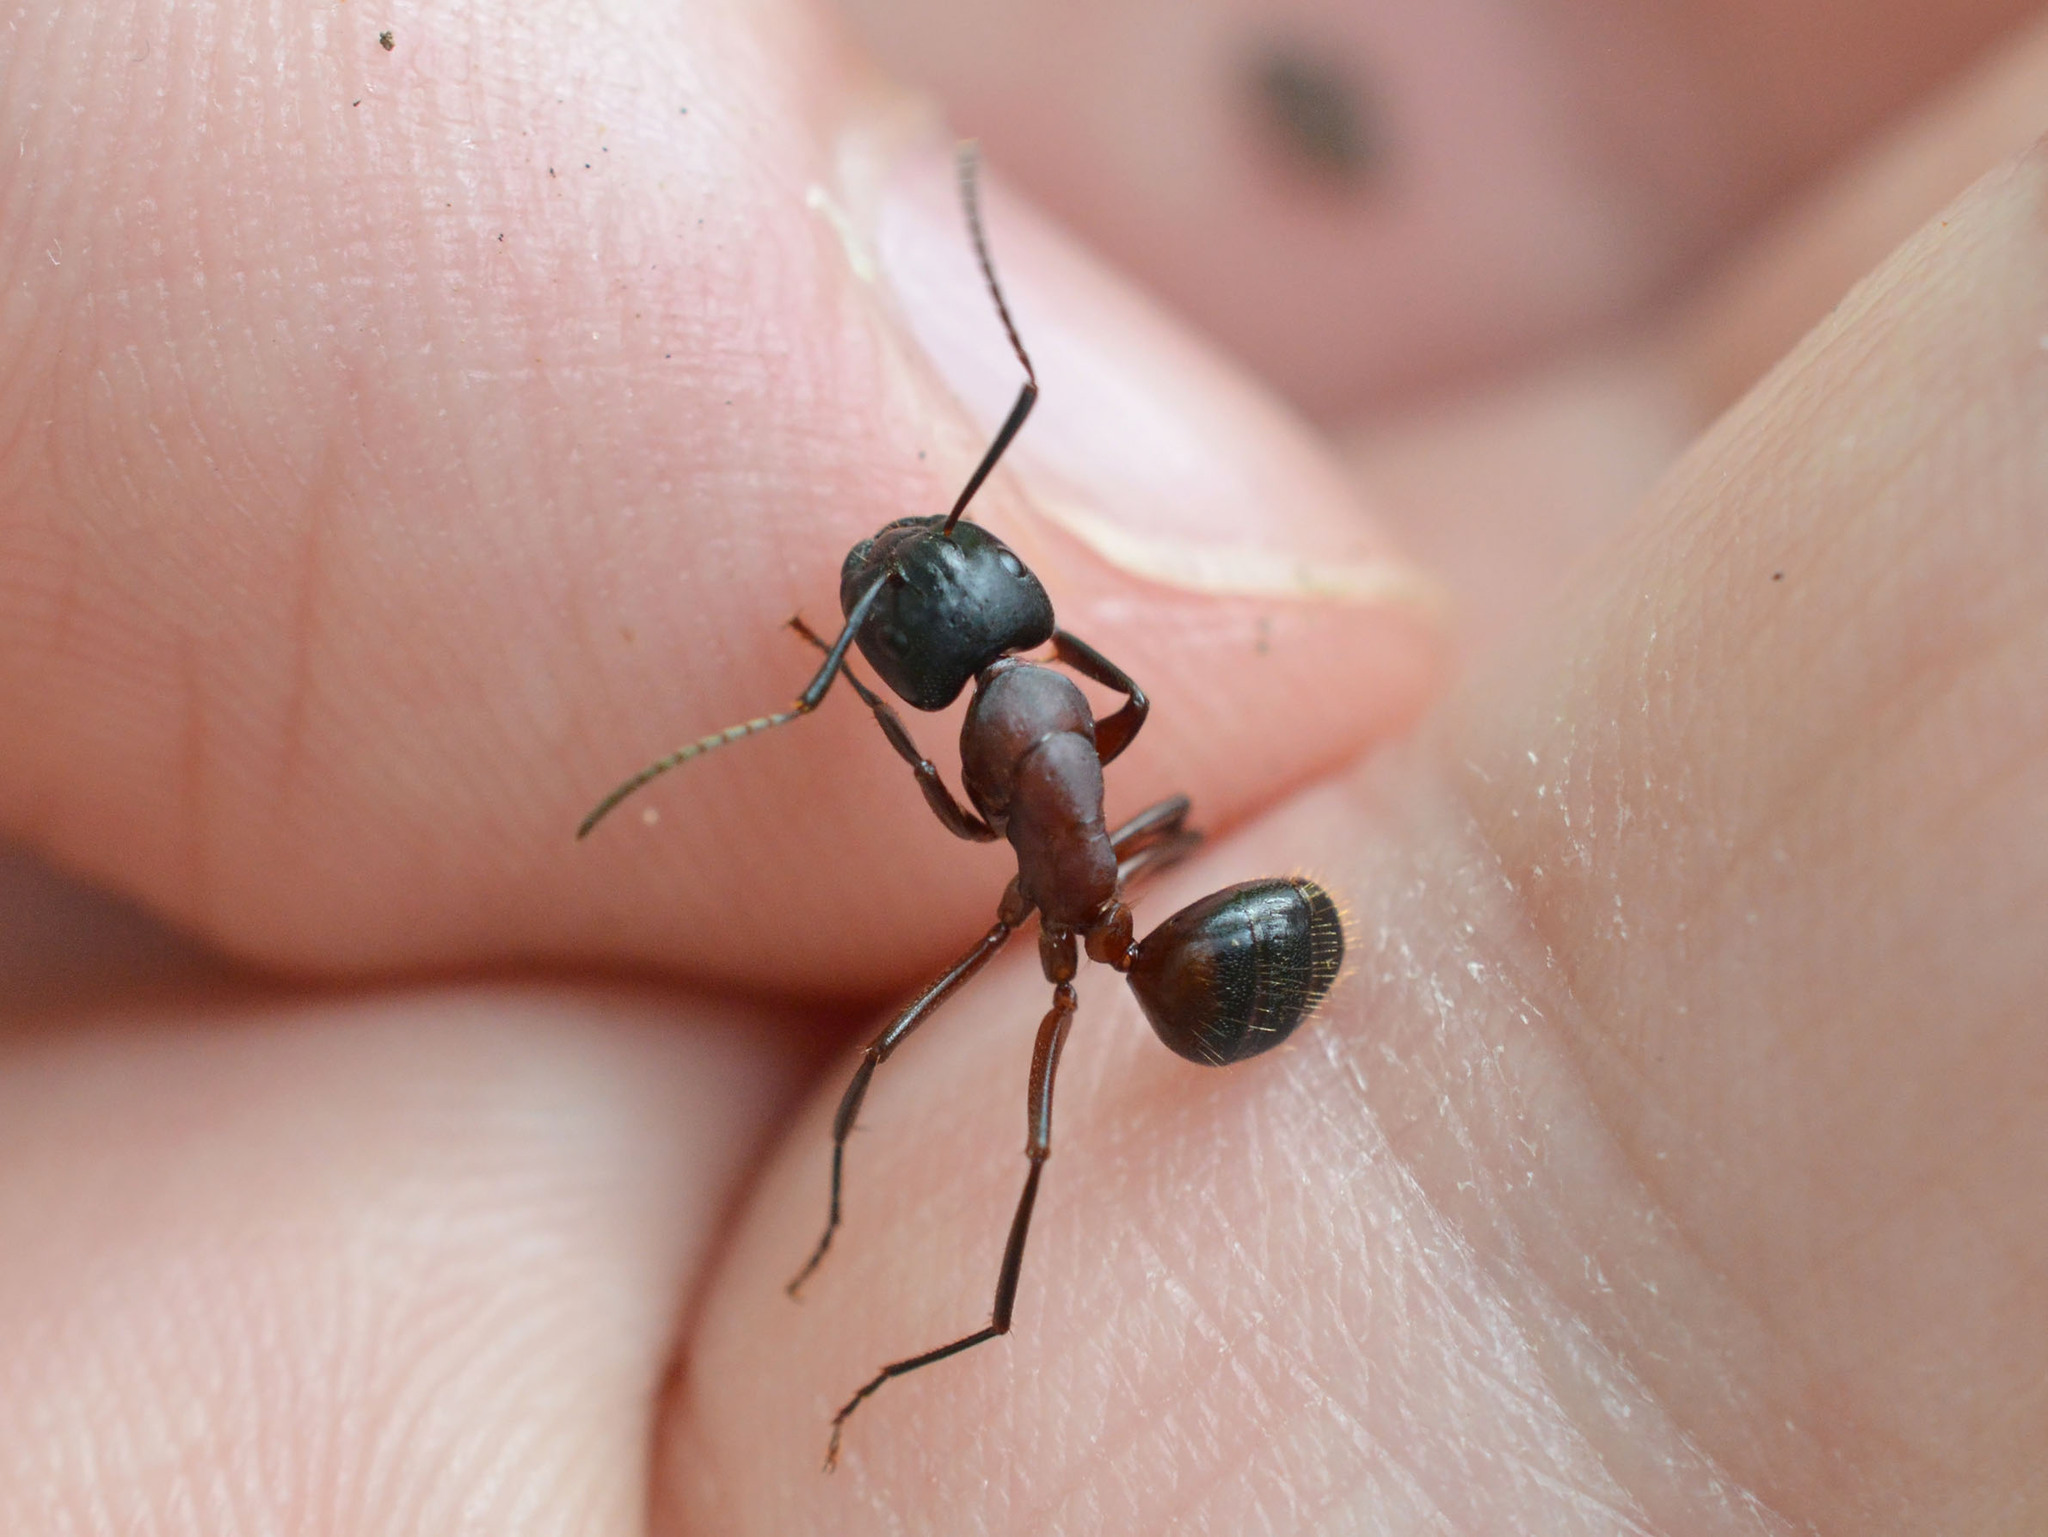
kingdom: Animalia
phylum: Arthropoda
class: Insecta
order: Hymenoptera
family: Formicidae
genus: Camponotus
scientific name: Camponotus ligniperdus
